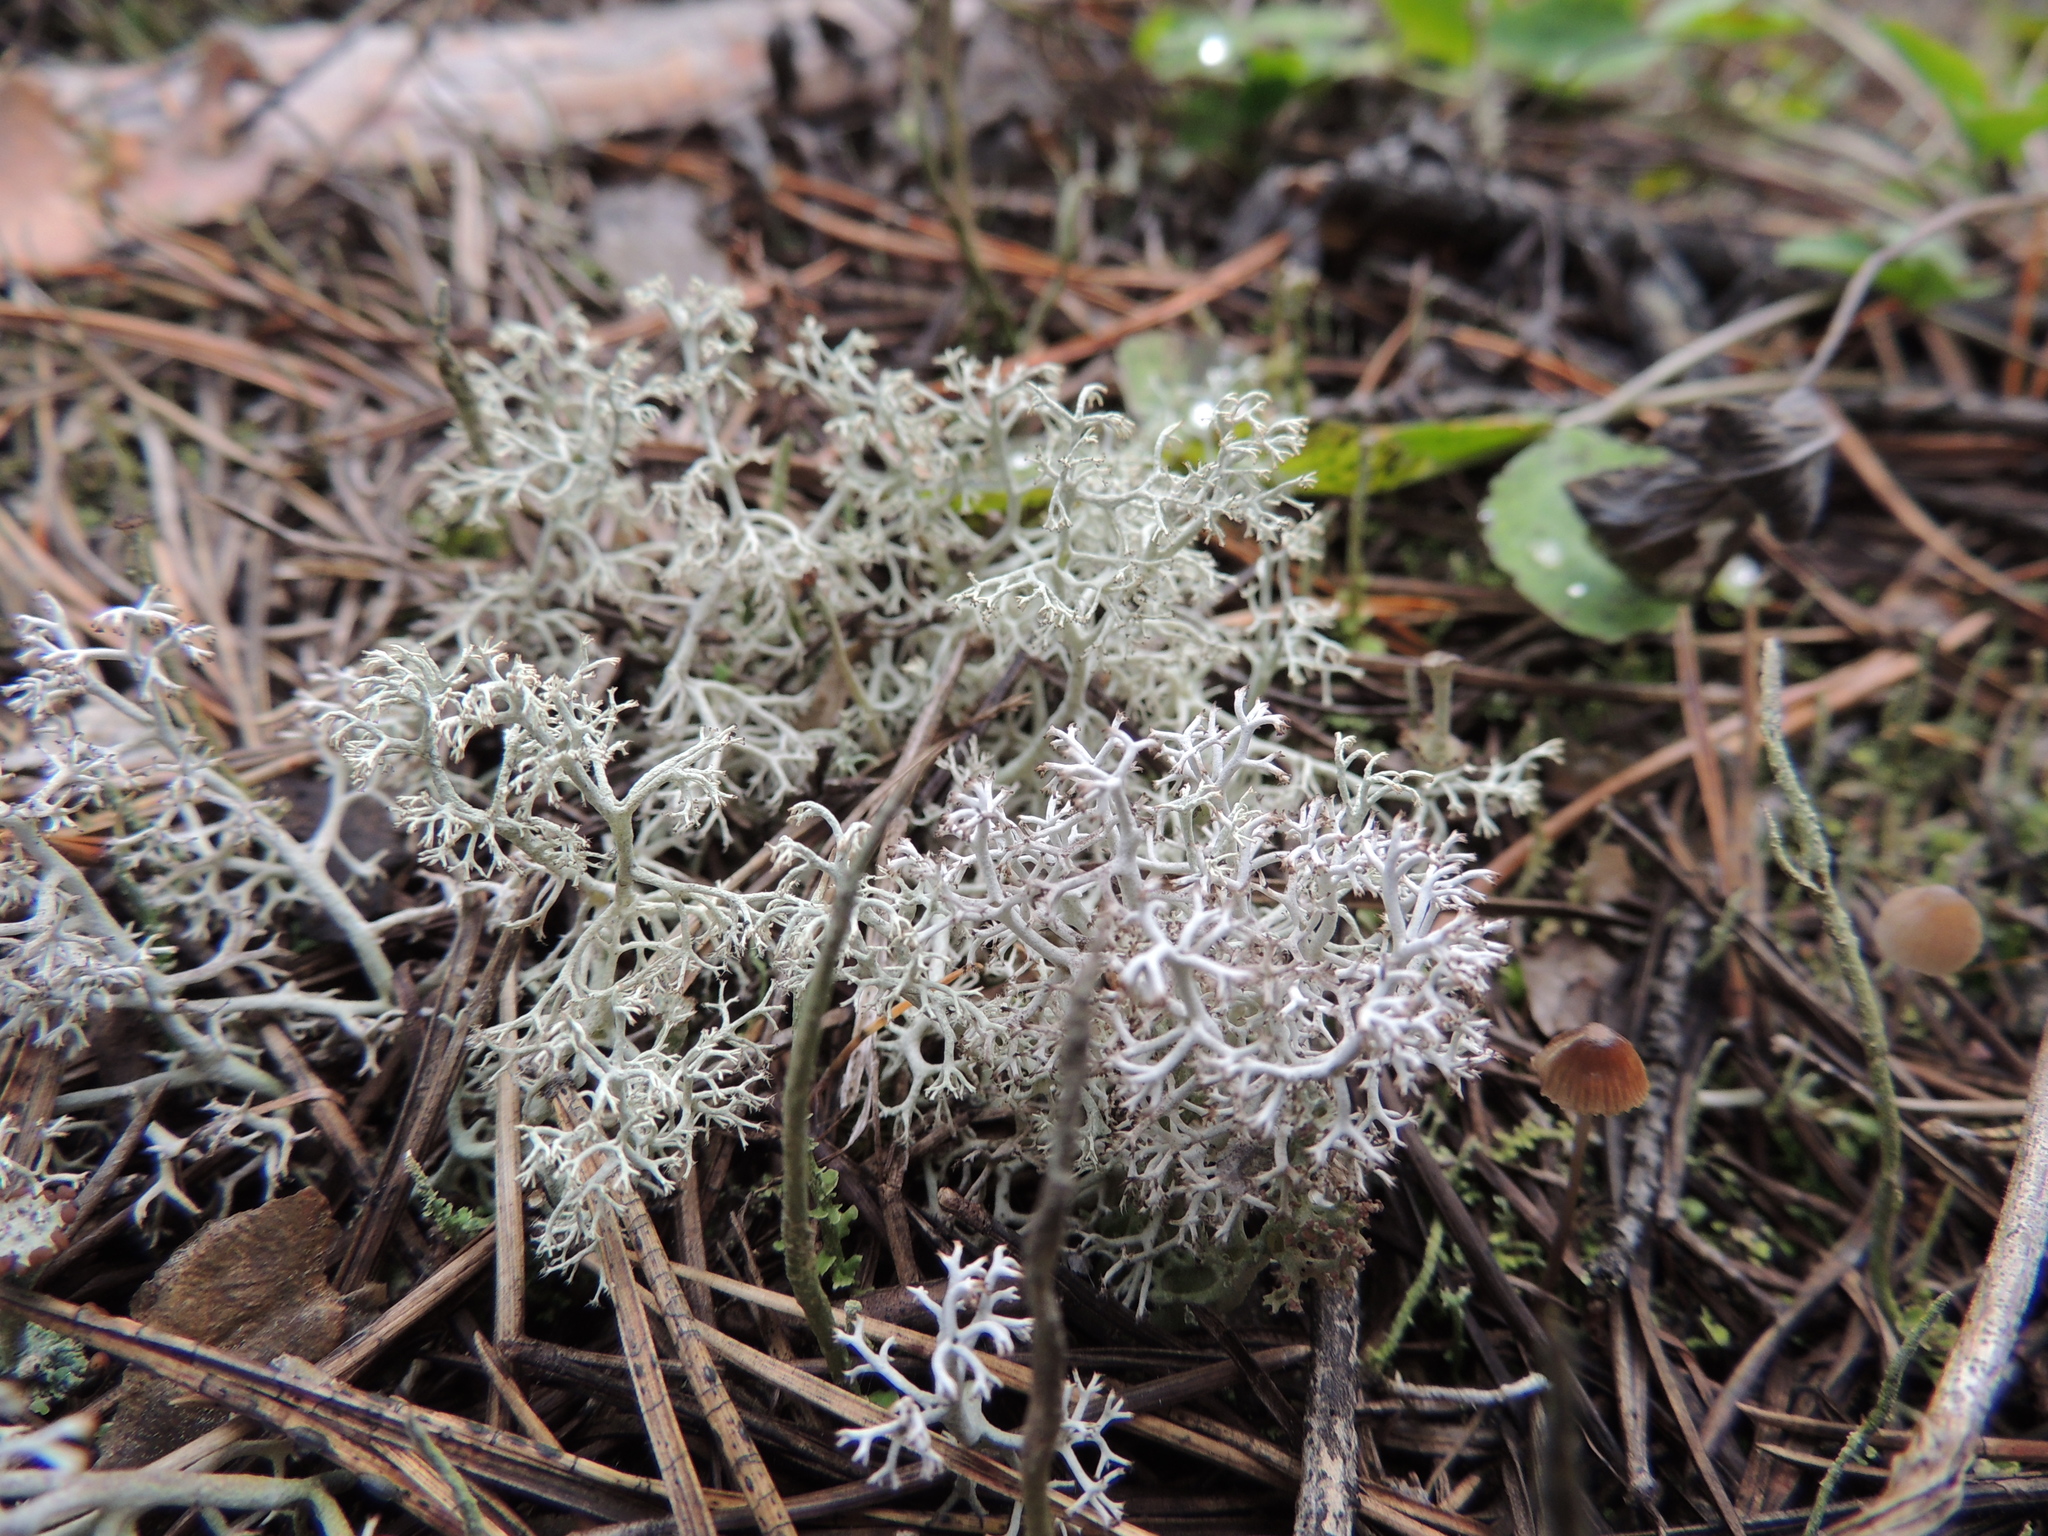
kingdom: Fungi
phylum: Ascomycota
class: Lecanoromycetes
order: Lecanorales
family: Cladoniaceae
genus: Cladonia
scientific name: Cladonia rangiferina
